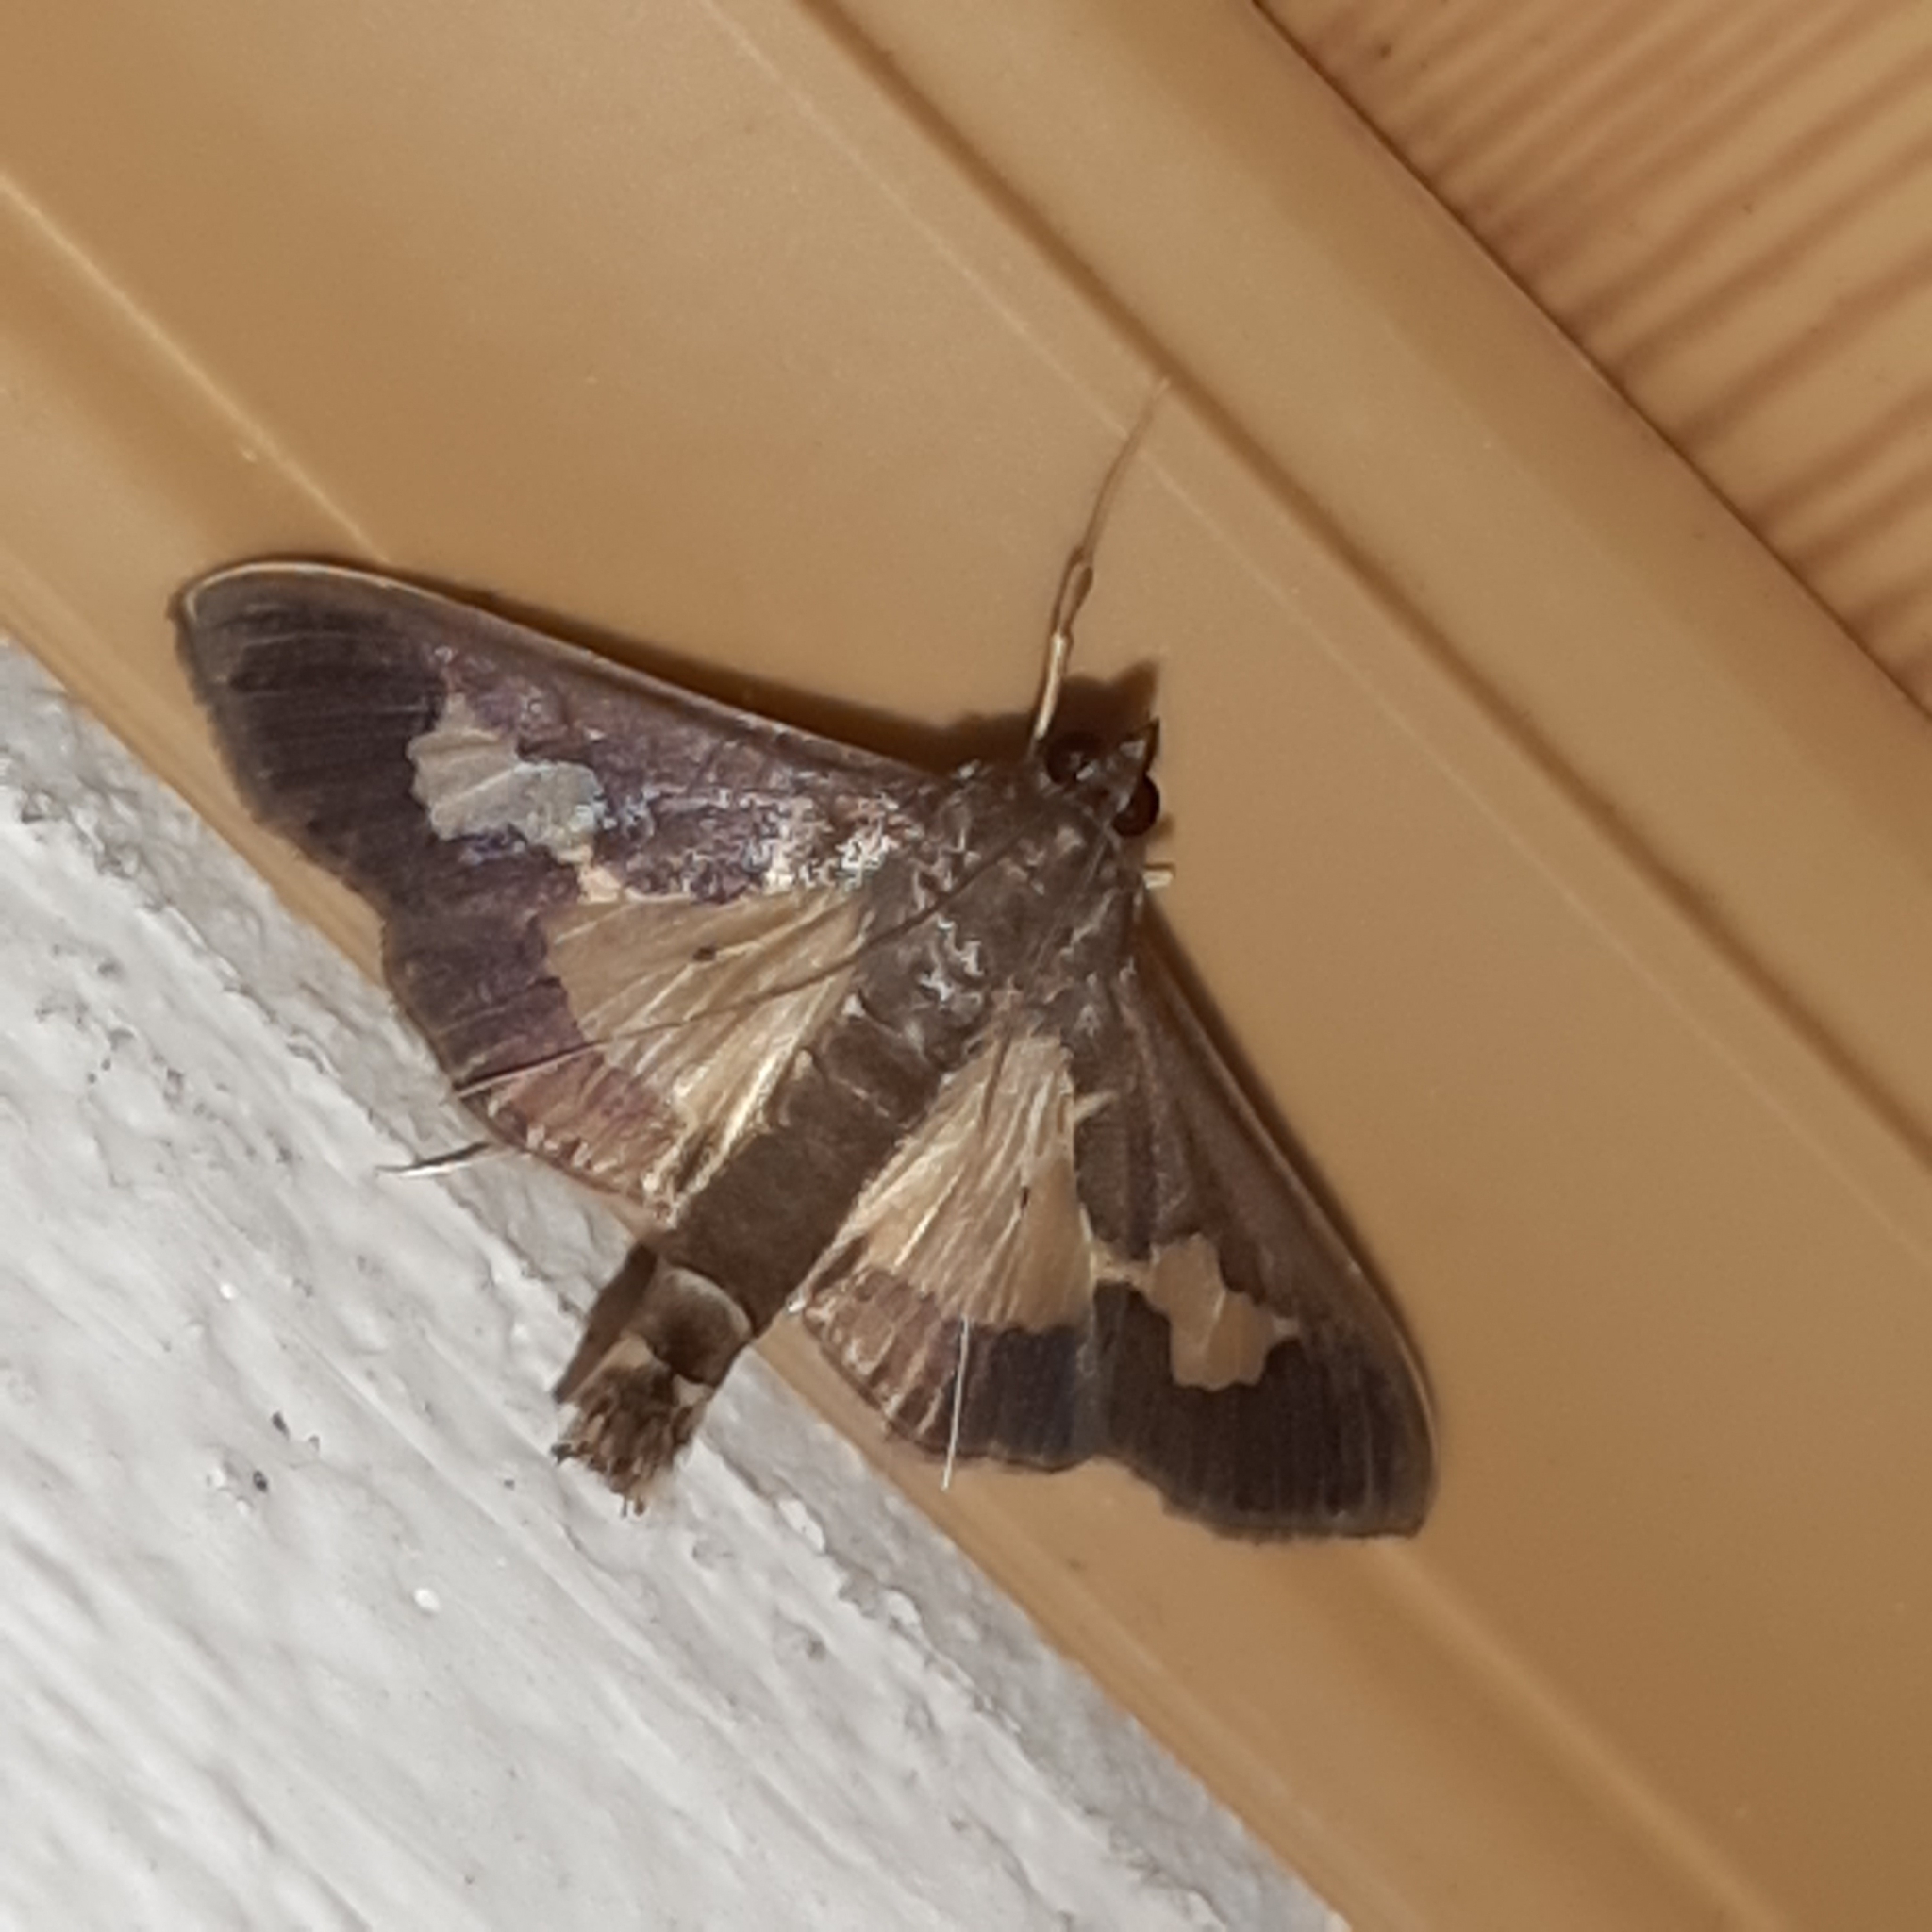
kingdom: Animalia
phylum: Arthropoda
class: Insecta
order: Lepidoptera
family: Crambidae
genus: Cryptographis
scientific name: Cryptographis nitidalis
